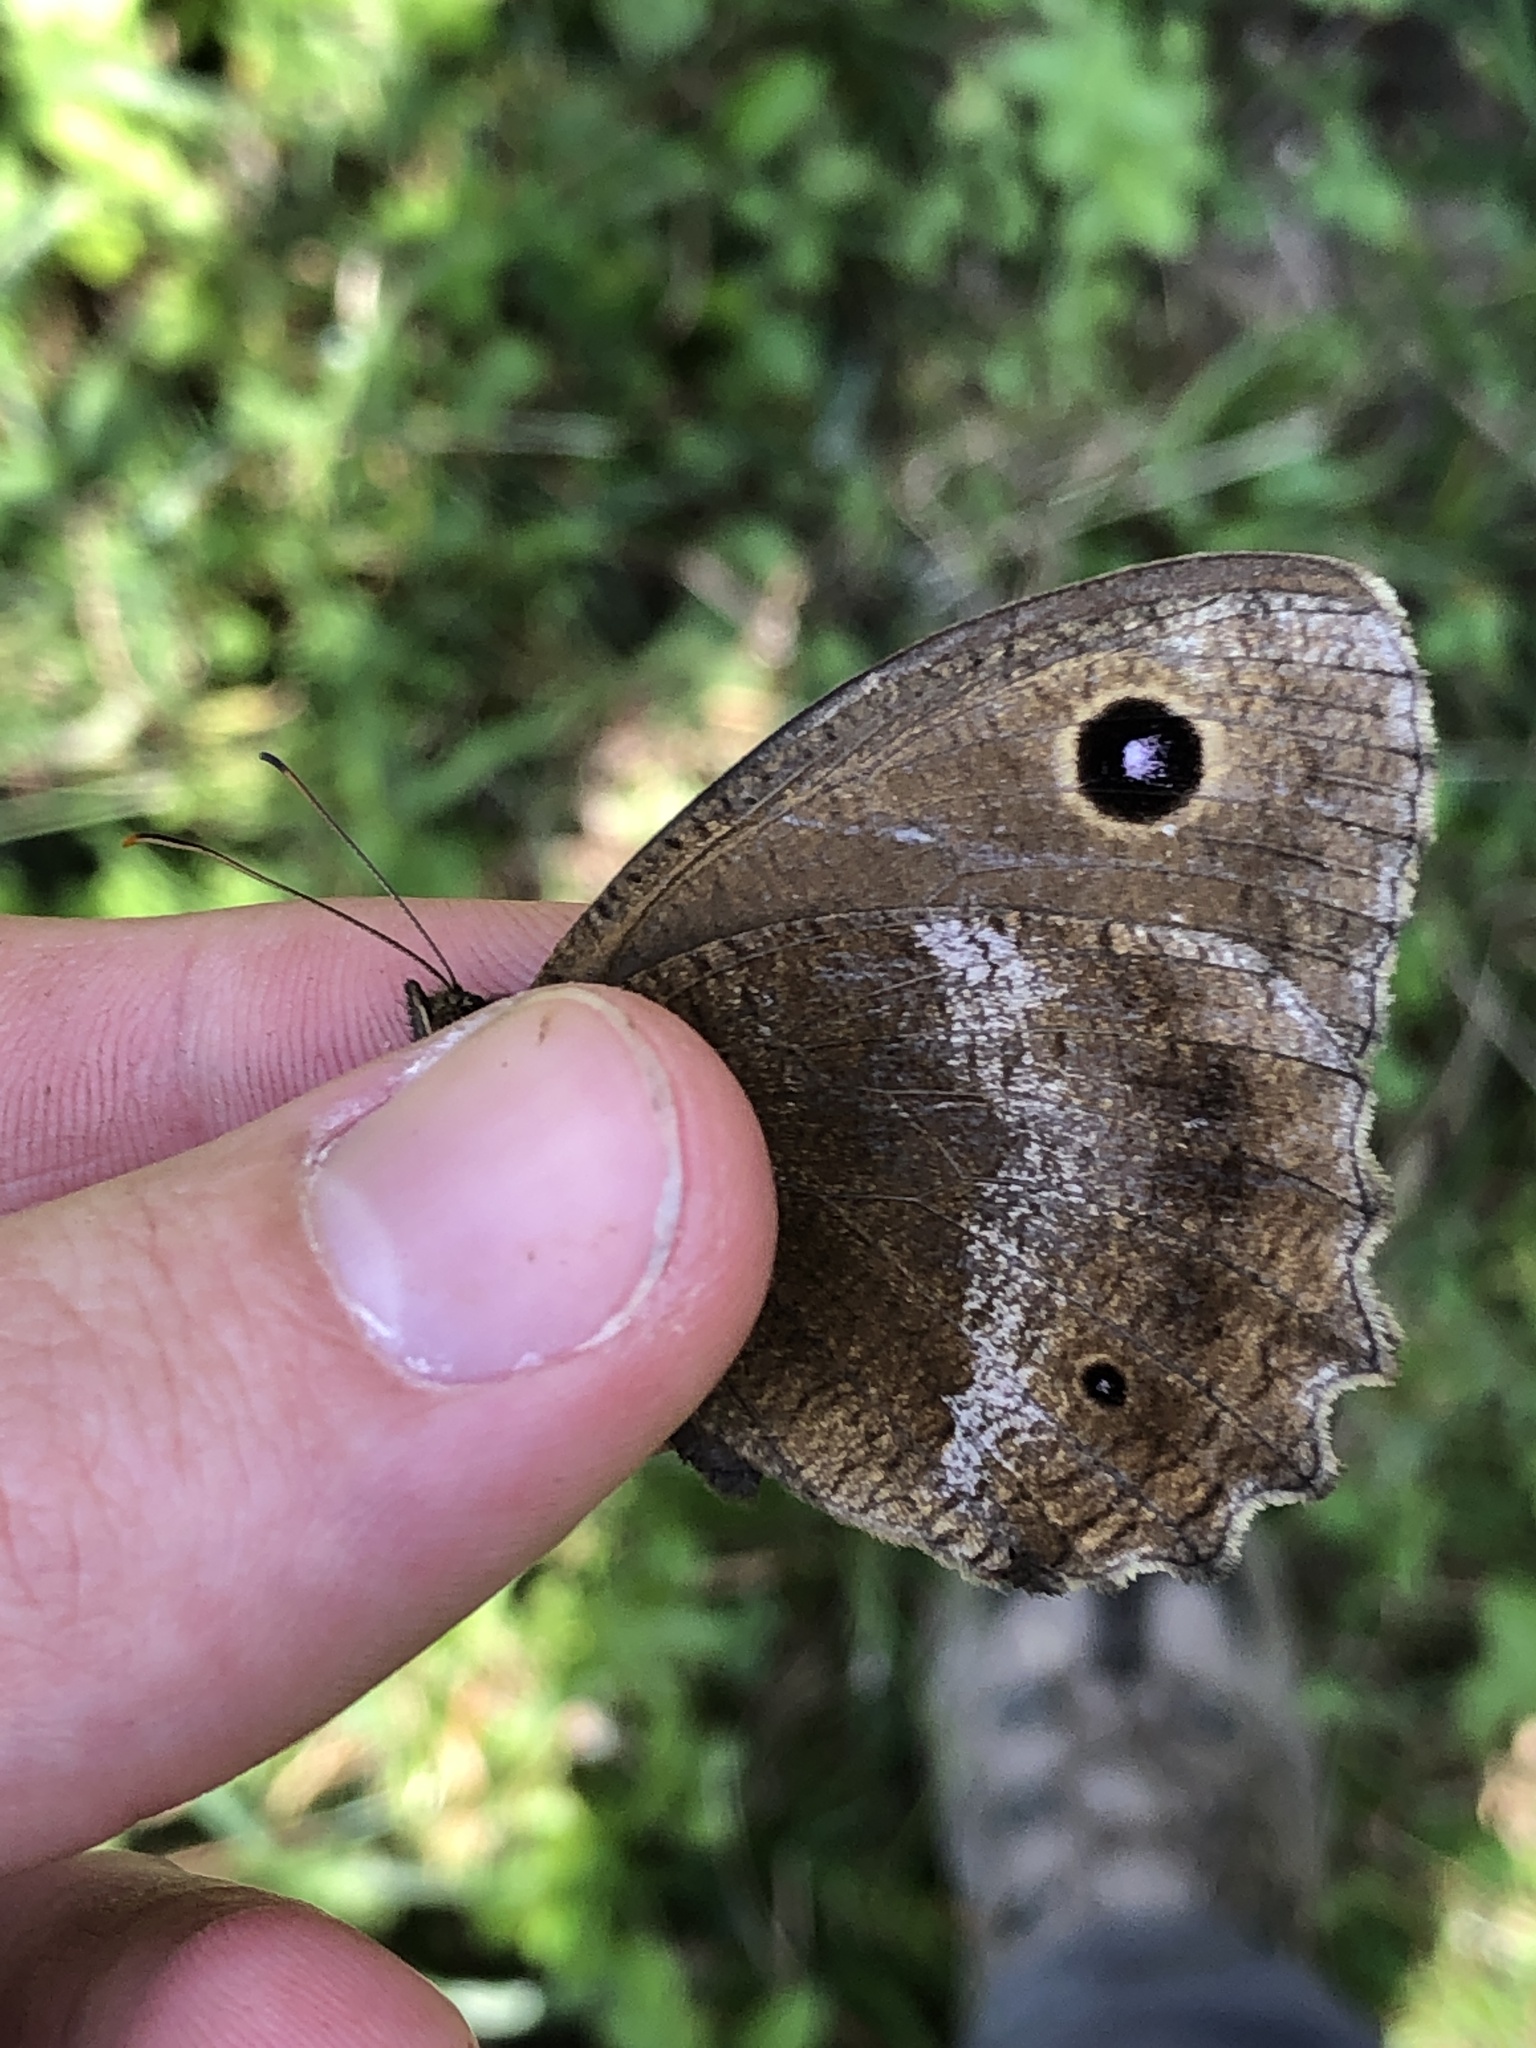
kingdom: Animalia
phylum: Arthropoda
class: Insecta
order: Lepidoptera
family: Nymphalidae
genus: Minois
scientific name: Minois dryas
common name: Dryad
